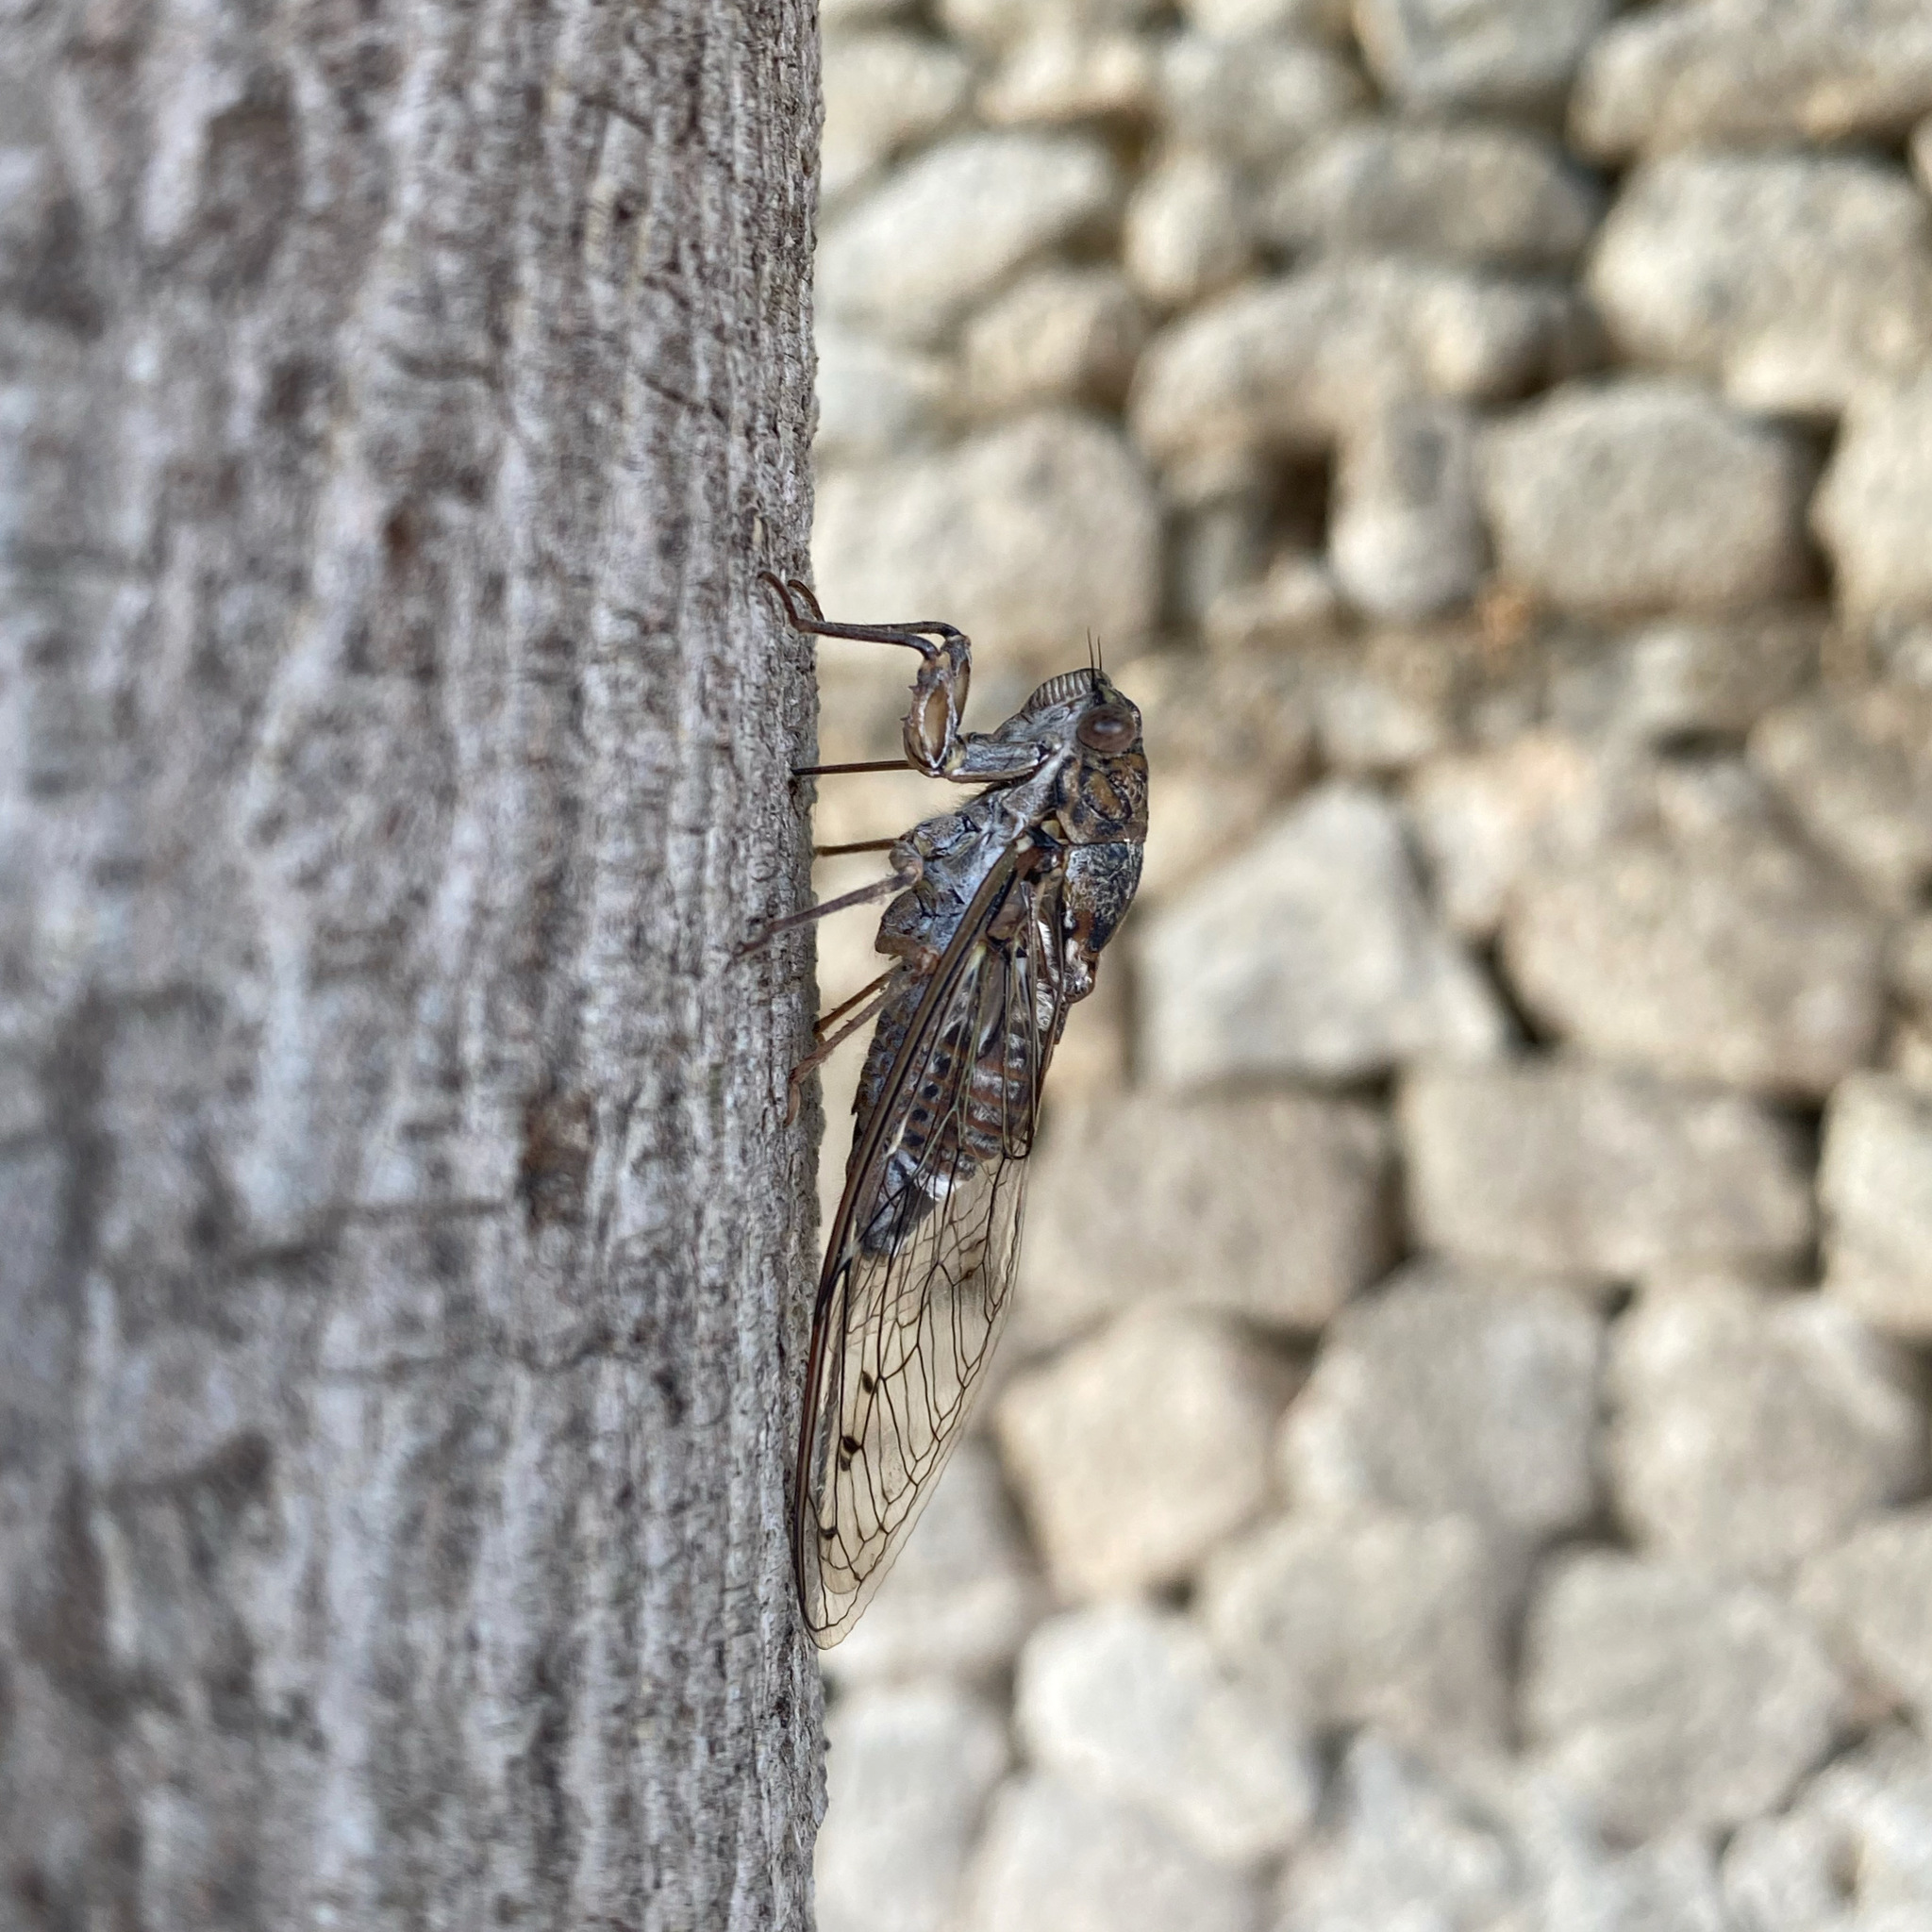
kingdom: Animalia
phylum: Arthropoda
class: Insecta
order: Hemiptera
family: Cicadidae
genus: Cicada
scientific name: Cicada cretensis
